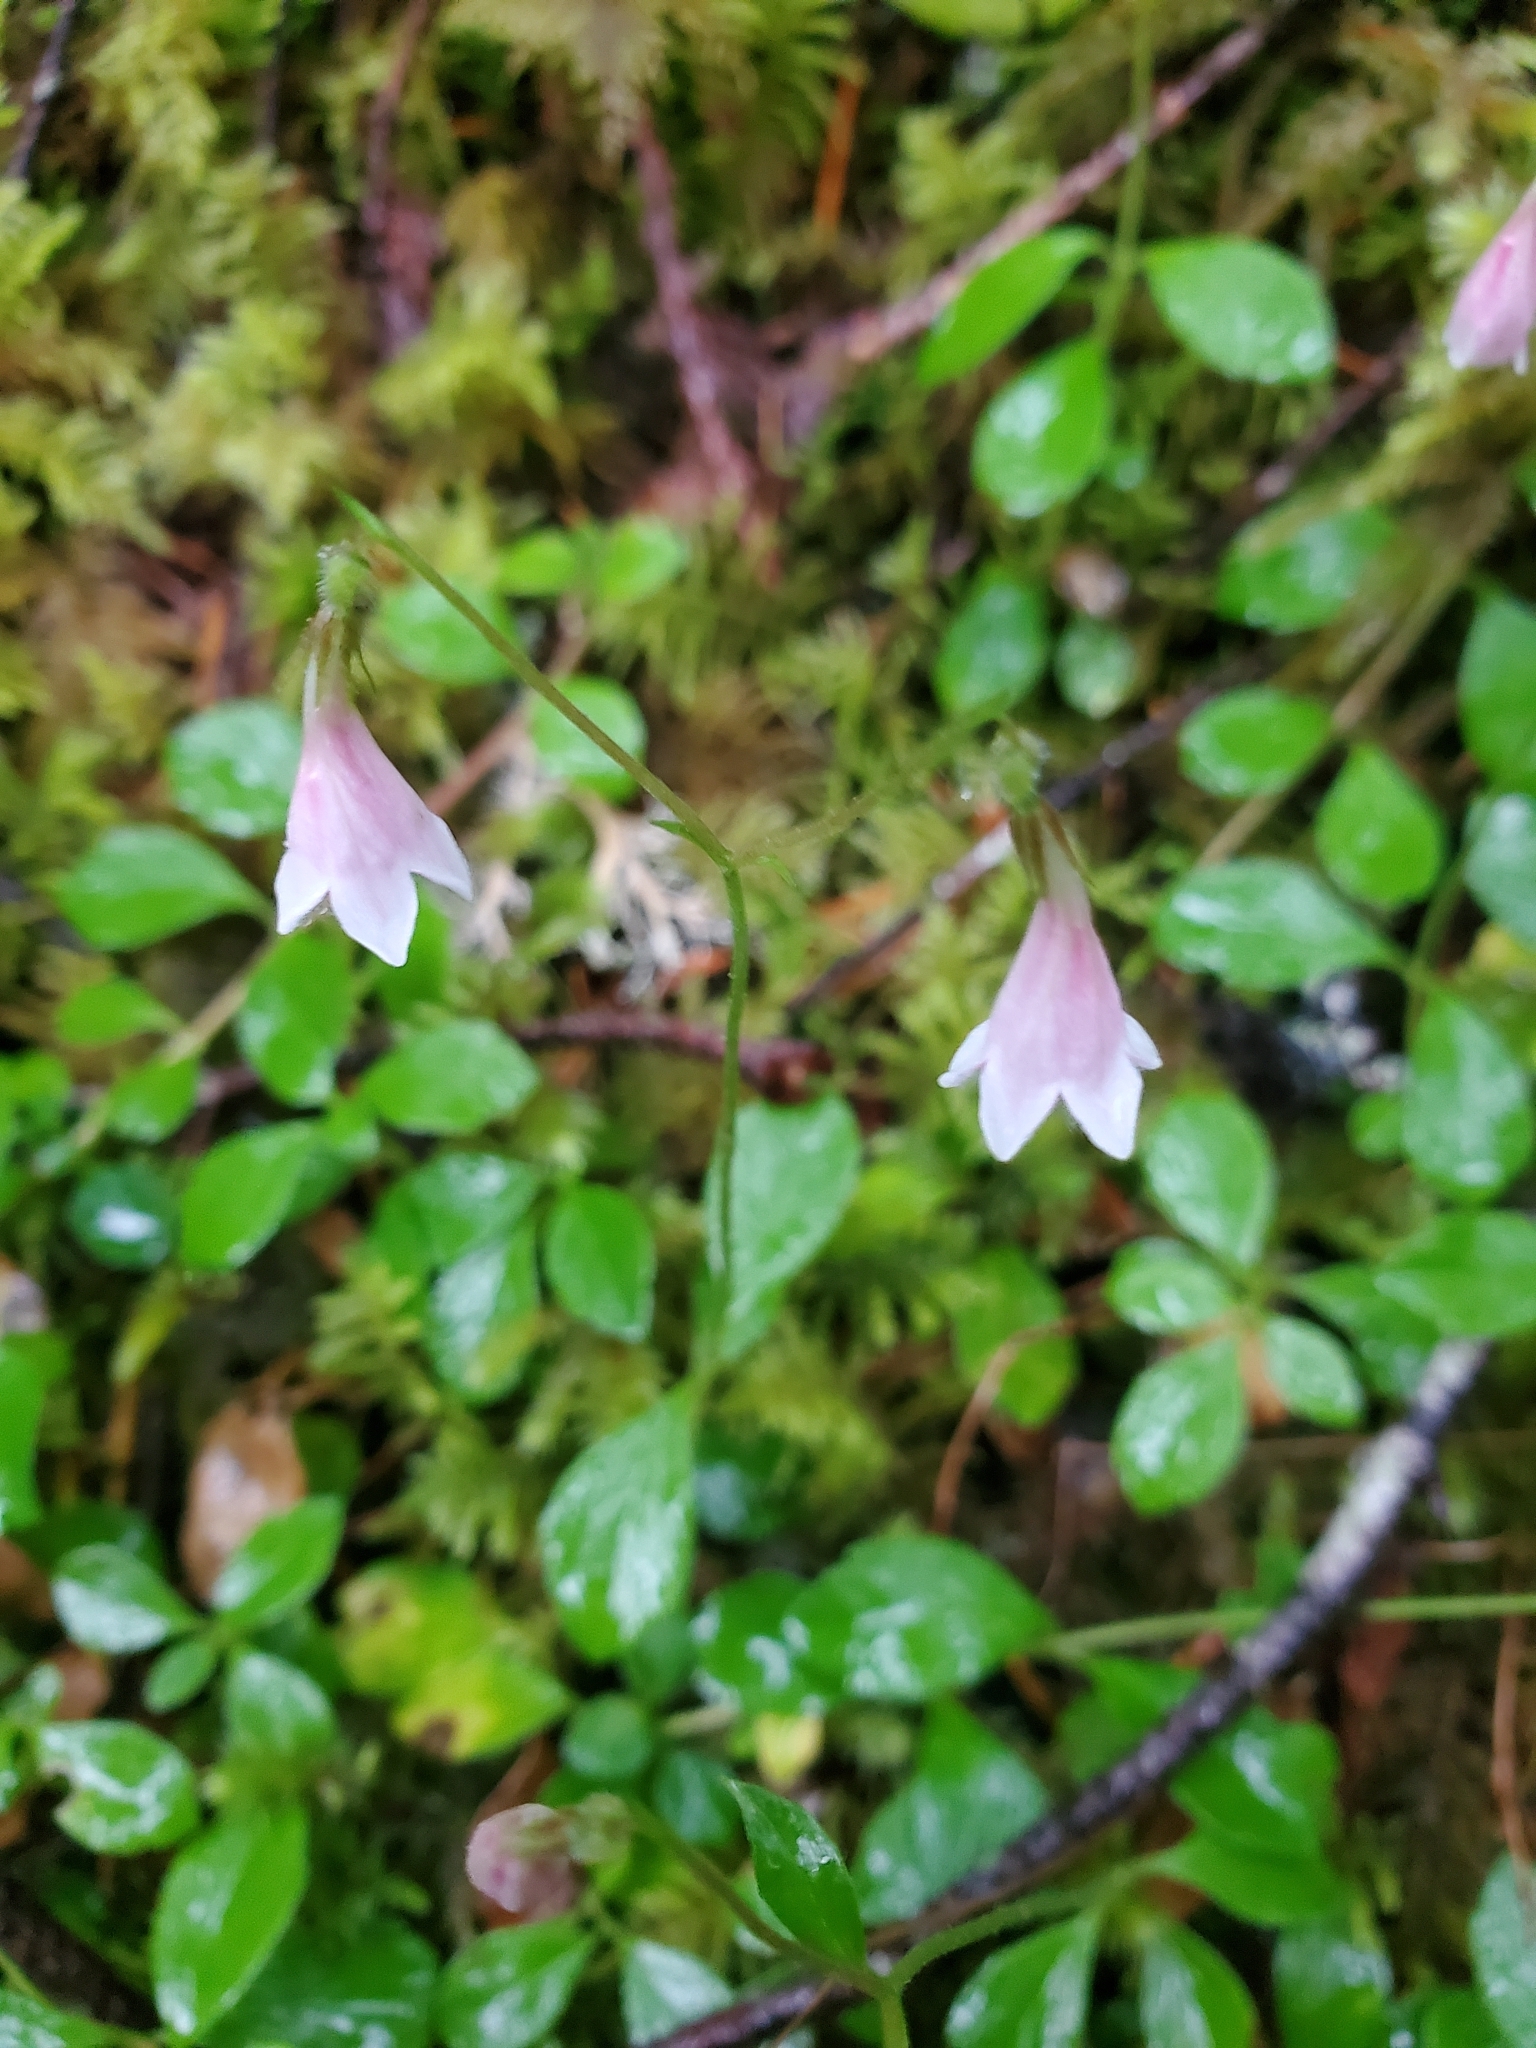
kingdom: Plantae
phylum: Tracheophyta
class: Magnoliopsida
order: Dipsacales
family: Caprifoliaceae
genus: Linnaea
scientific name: Linnaea borealis
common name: Twinflower
